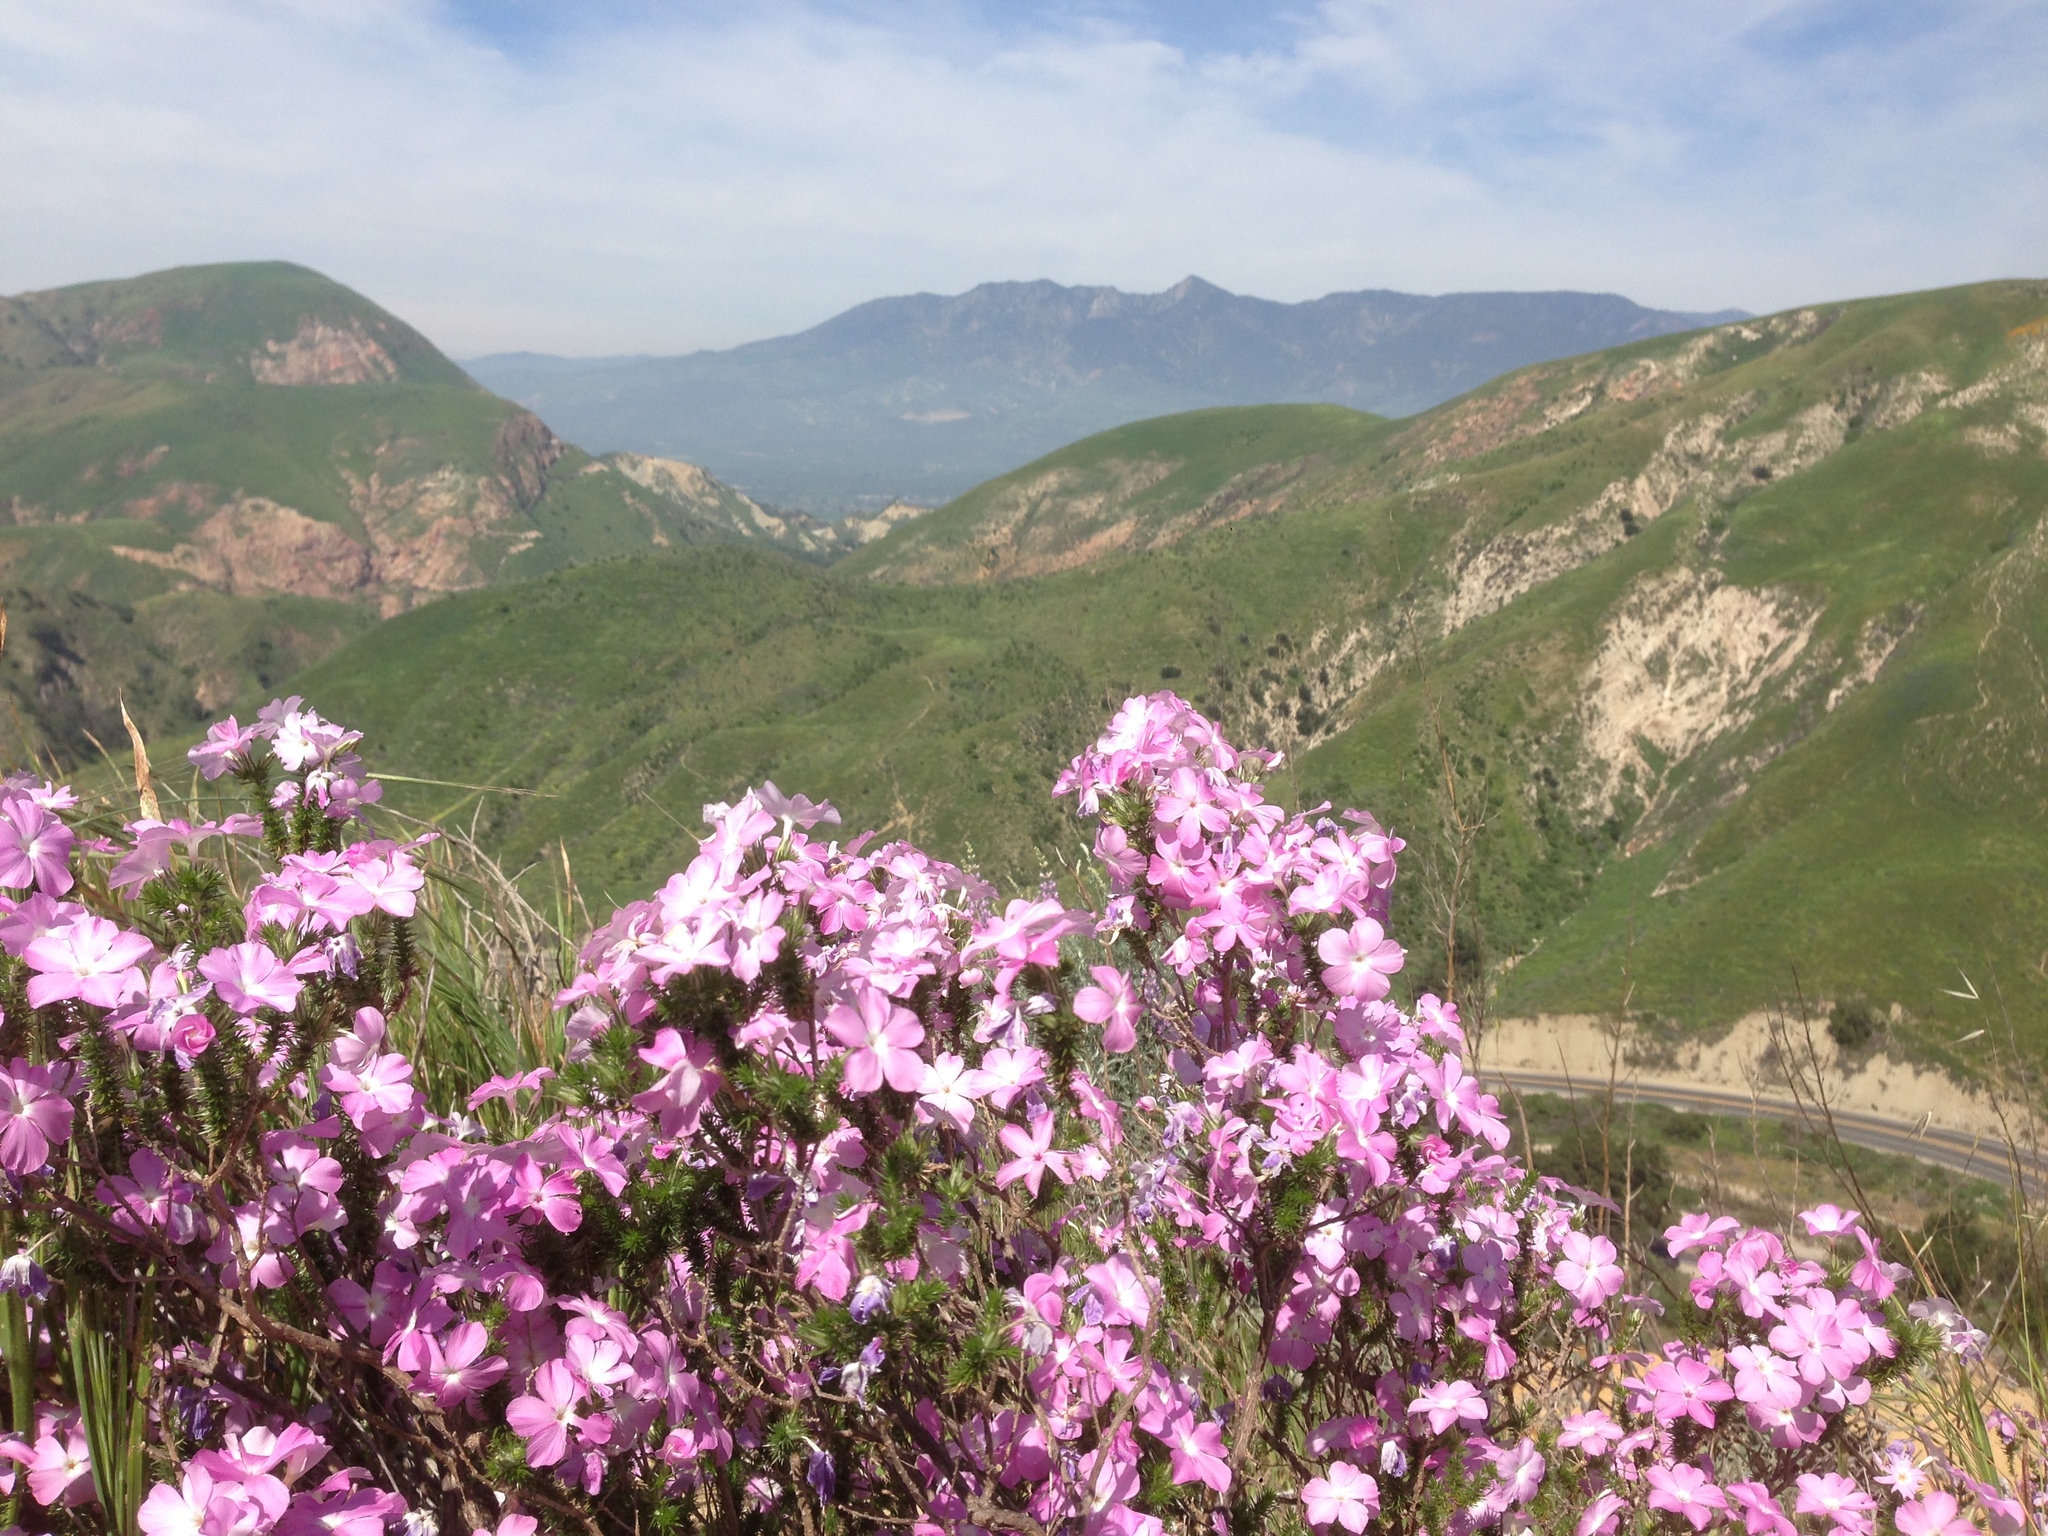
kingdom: Plantae
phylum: Tracheophyta
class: Magnoliopsida
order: Ericales
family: Polemoniaceae
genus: Linanthus
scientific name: Linanthus californicus
